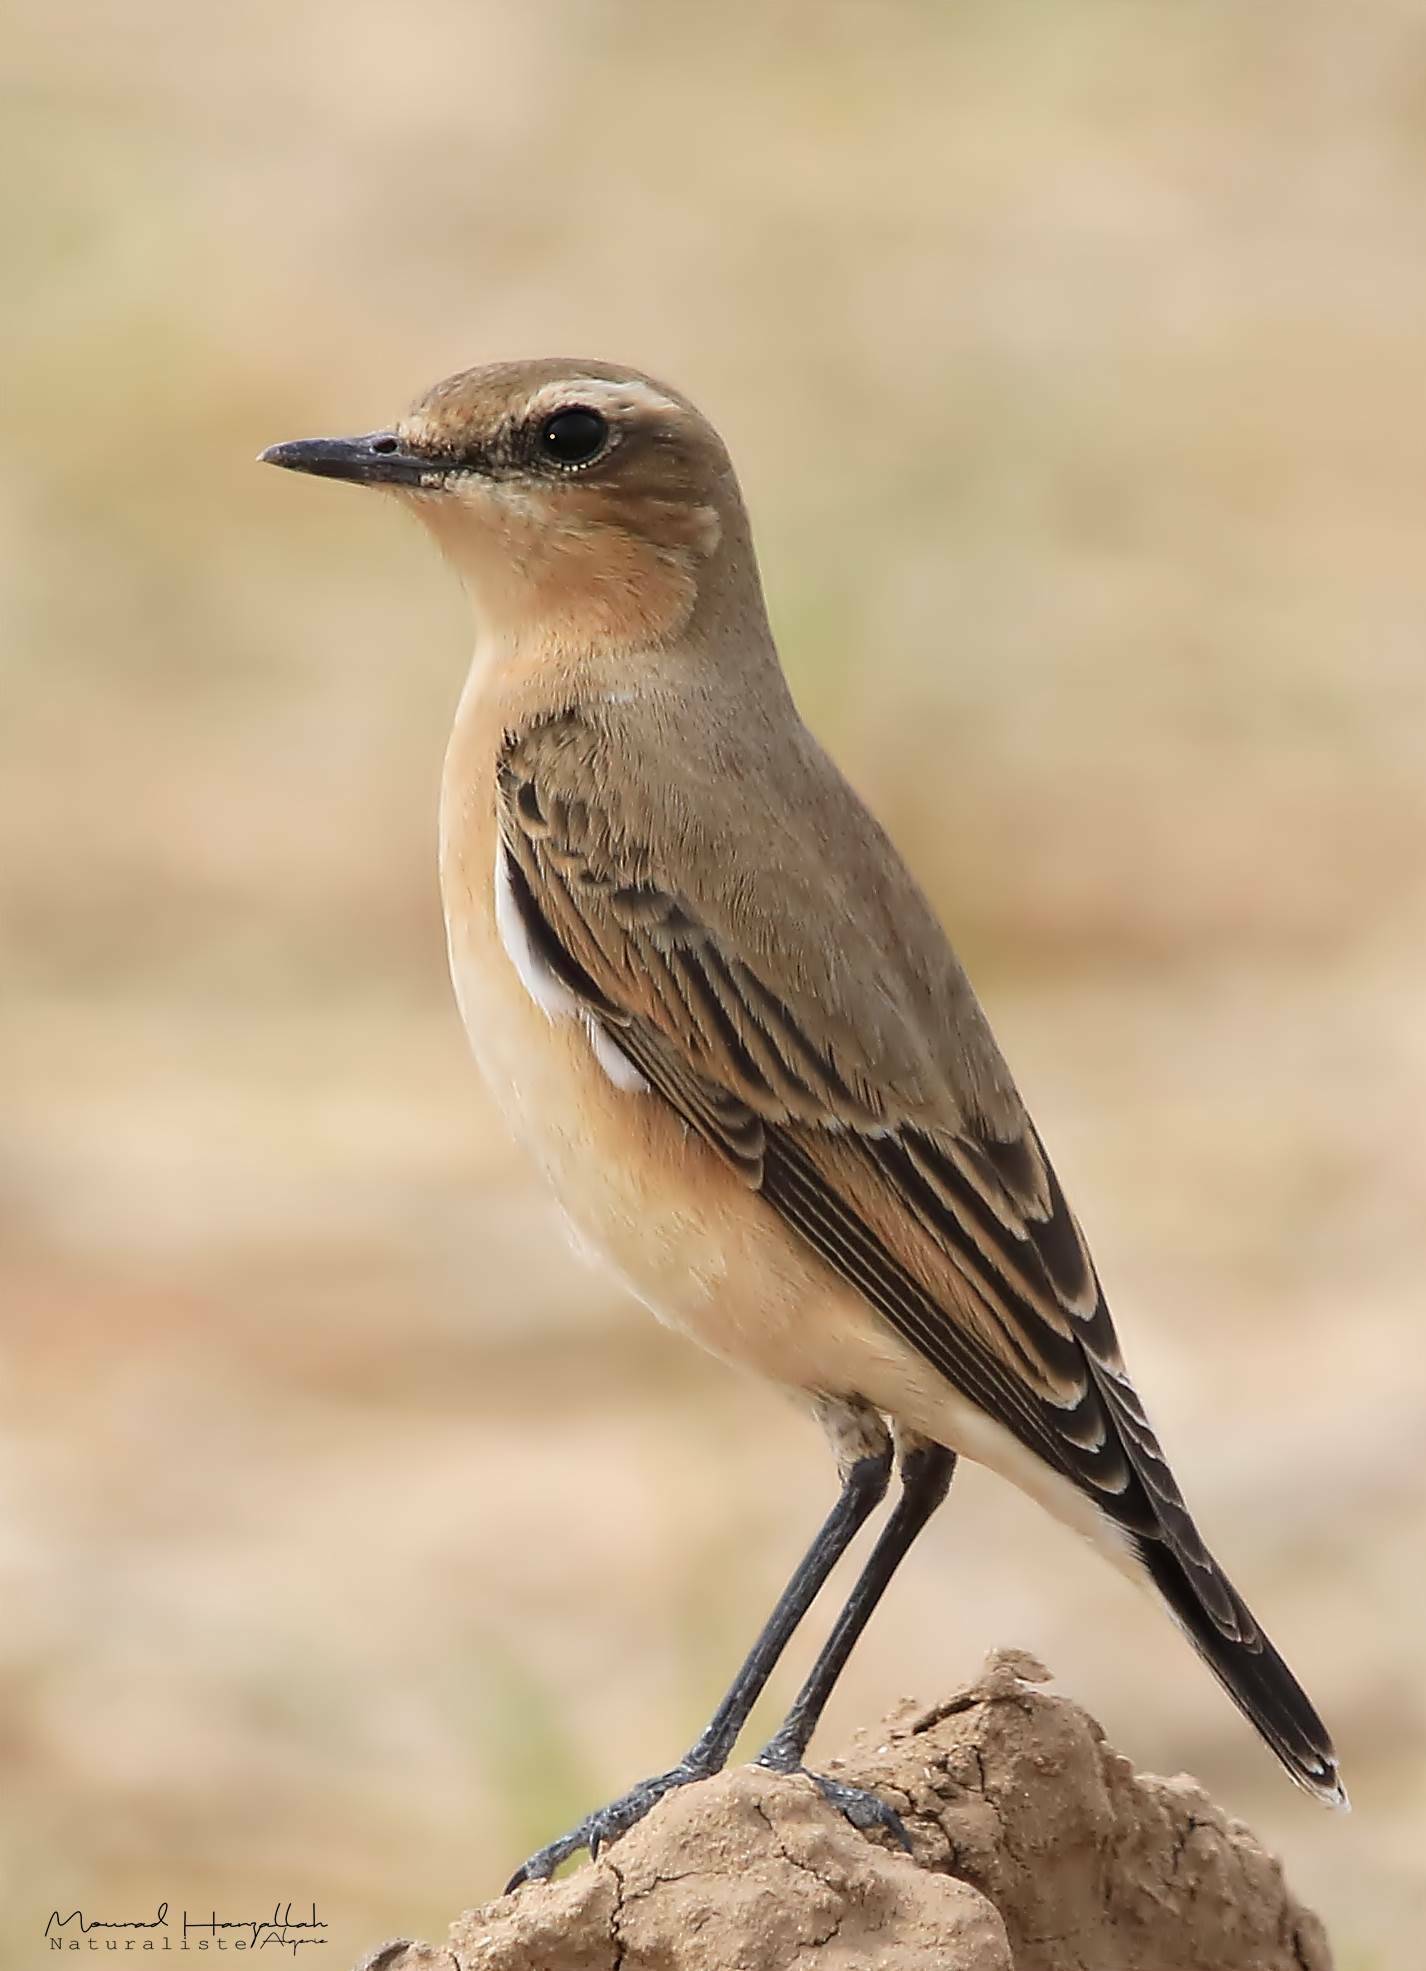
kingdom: Animalia
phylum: Chordata
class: Aves
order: Passeriformes
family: Muscicapidae
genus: Oenanthe
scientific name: Oenanthe oenanthe
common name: Northern wheatear
